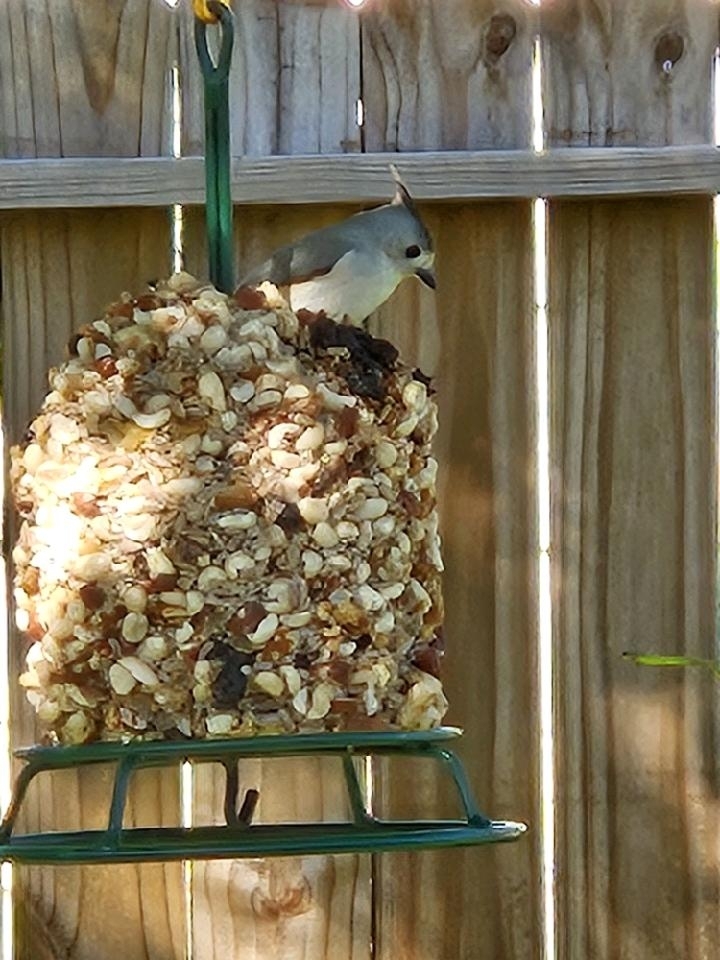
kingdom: Animalia
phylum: Chordata
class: Aves
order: Passeriformes
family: Paridae
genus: Baeolophus
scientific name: Baeolophus atricristatus
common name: Black-crested titmouse
